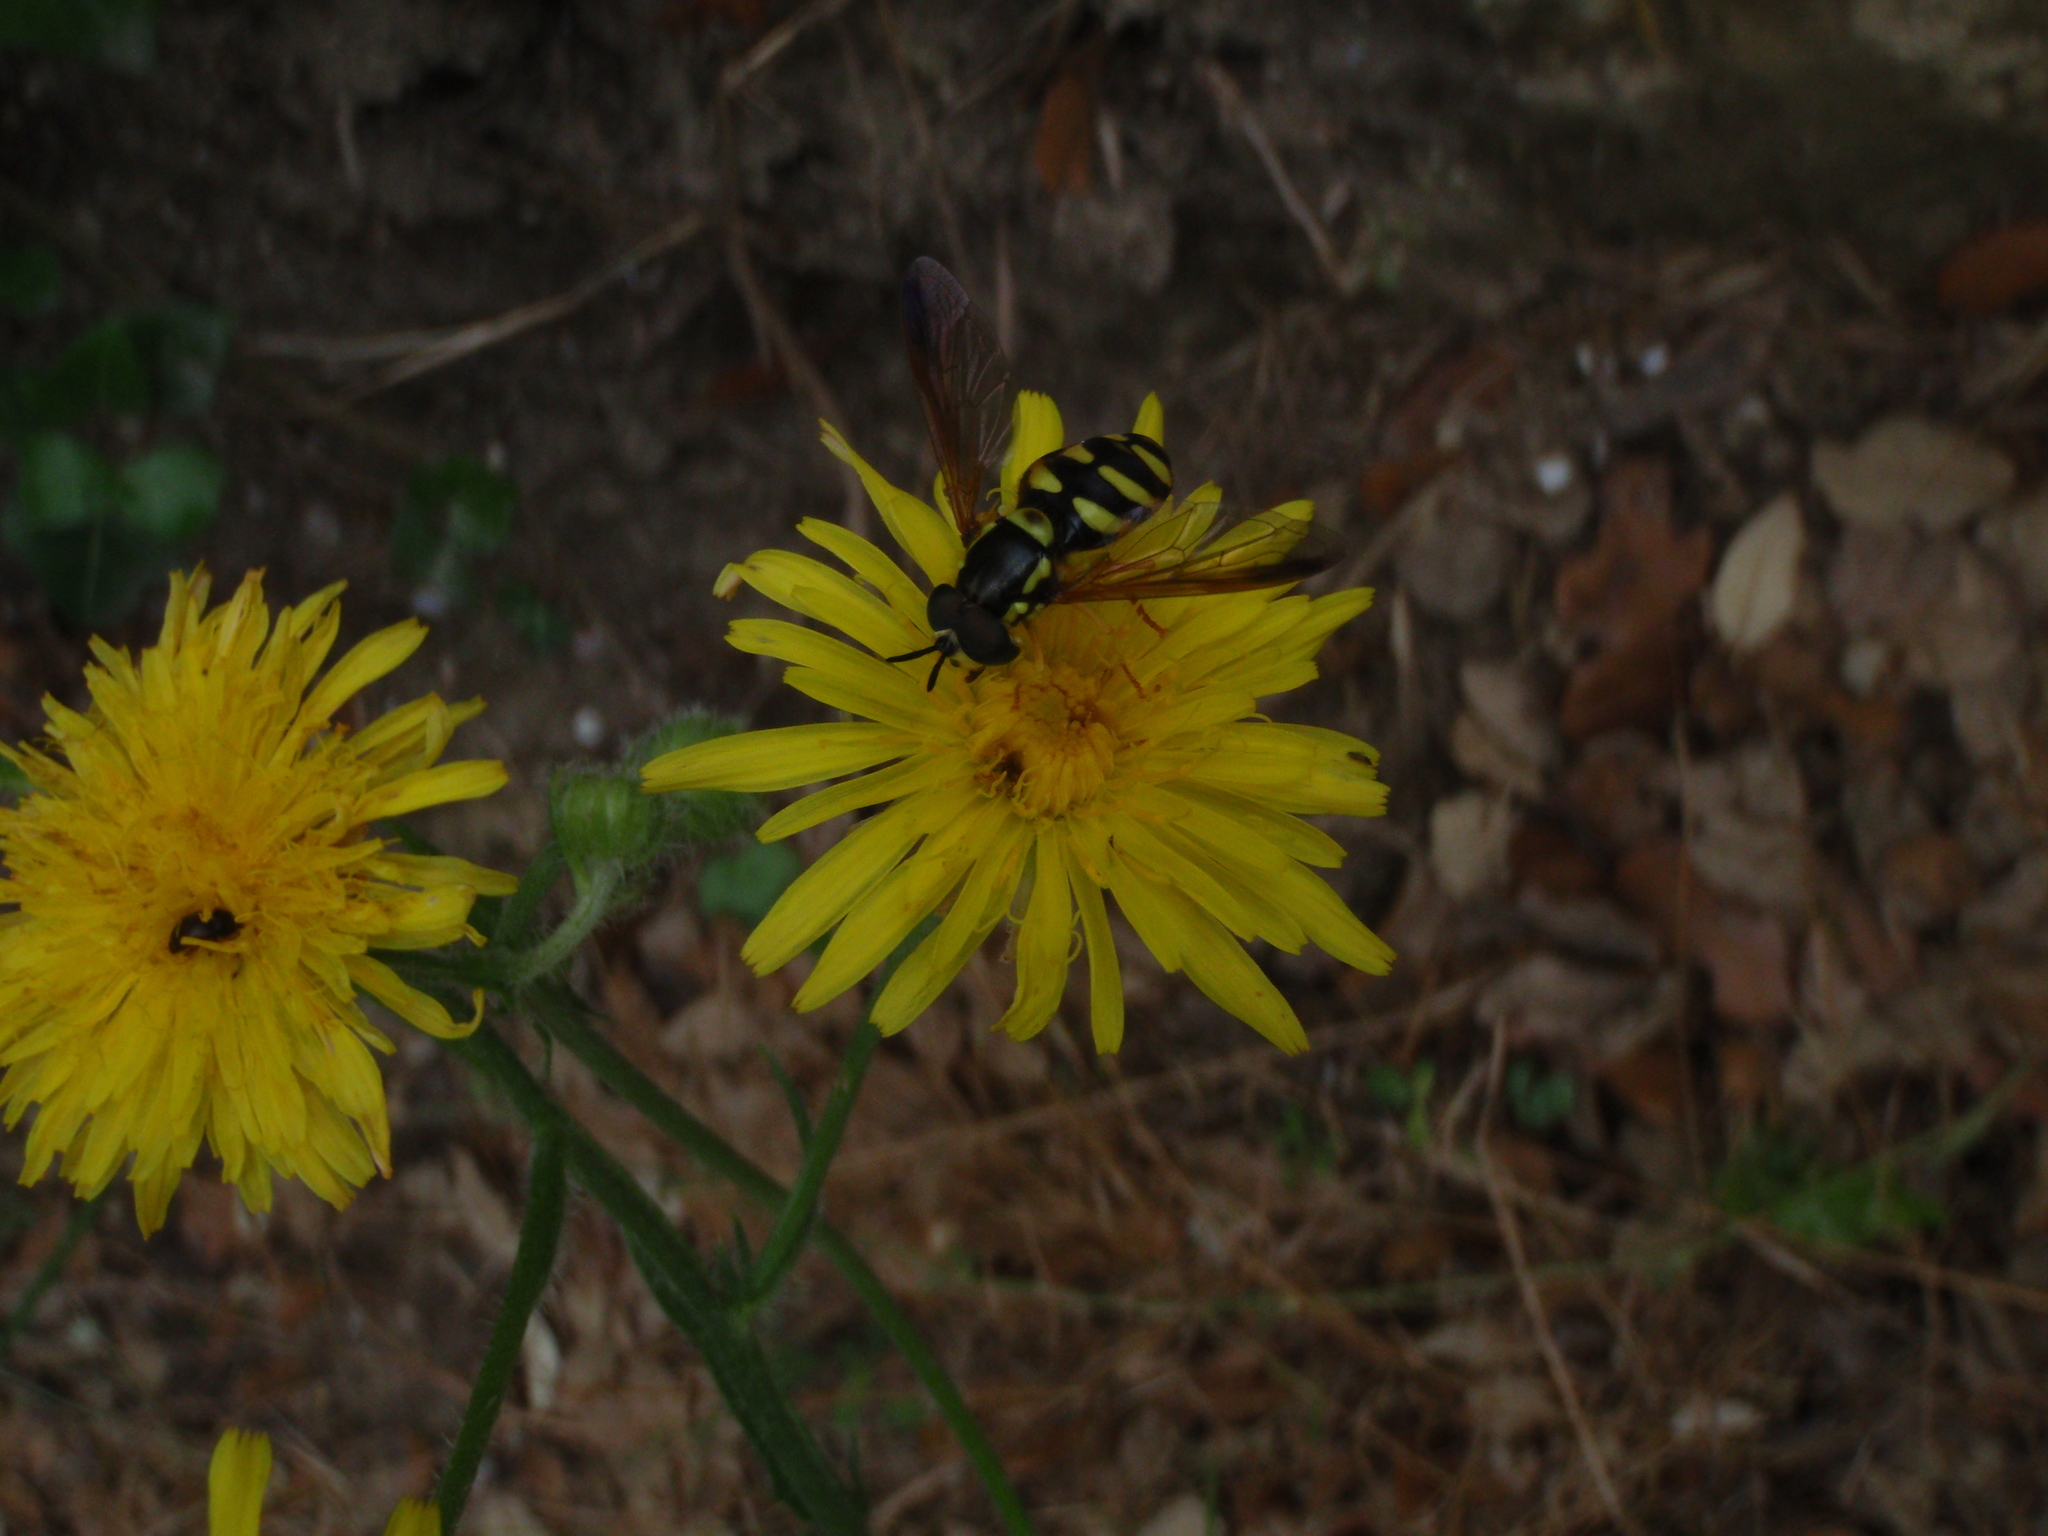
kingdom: Animalia
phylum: Arthropoda
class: Insecta
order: Diptera
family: Syrphidae
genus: Chrysotoxum
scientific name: Chrysotoxum intermedium
